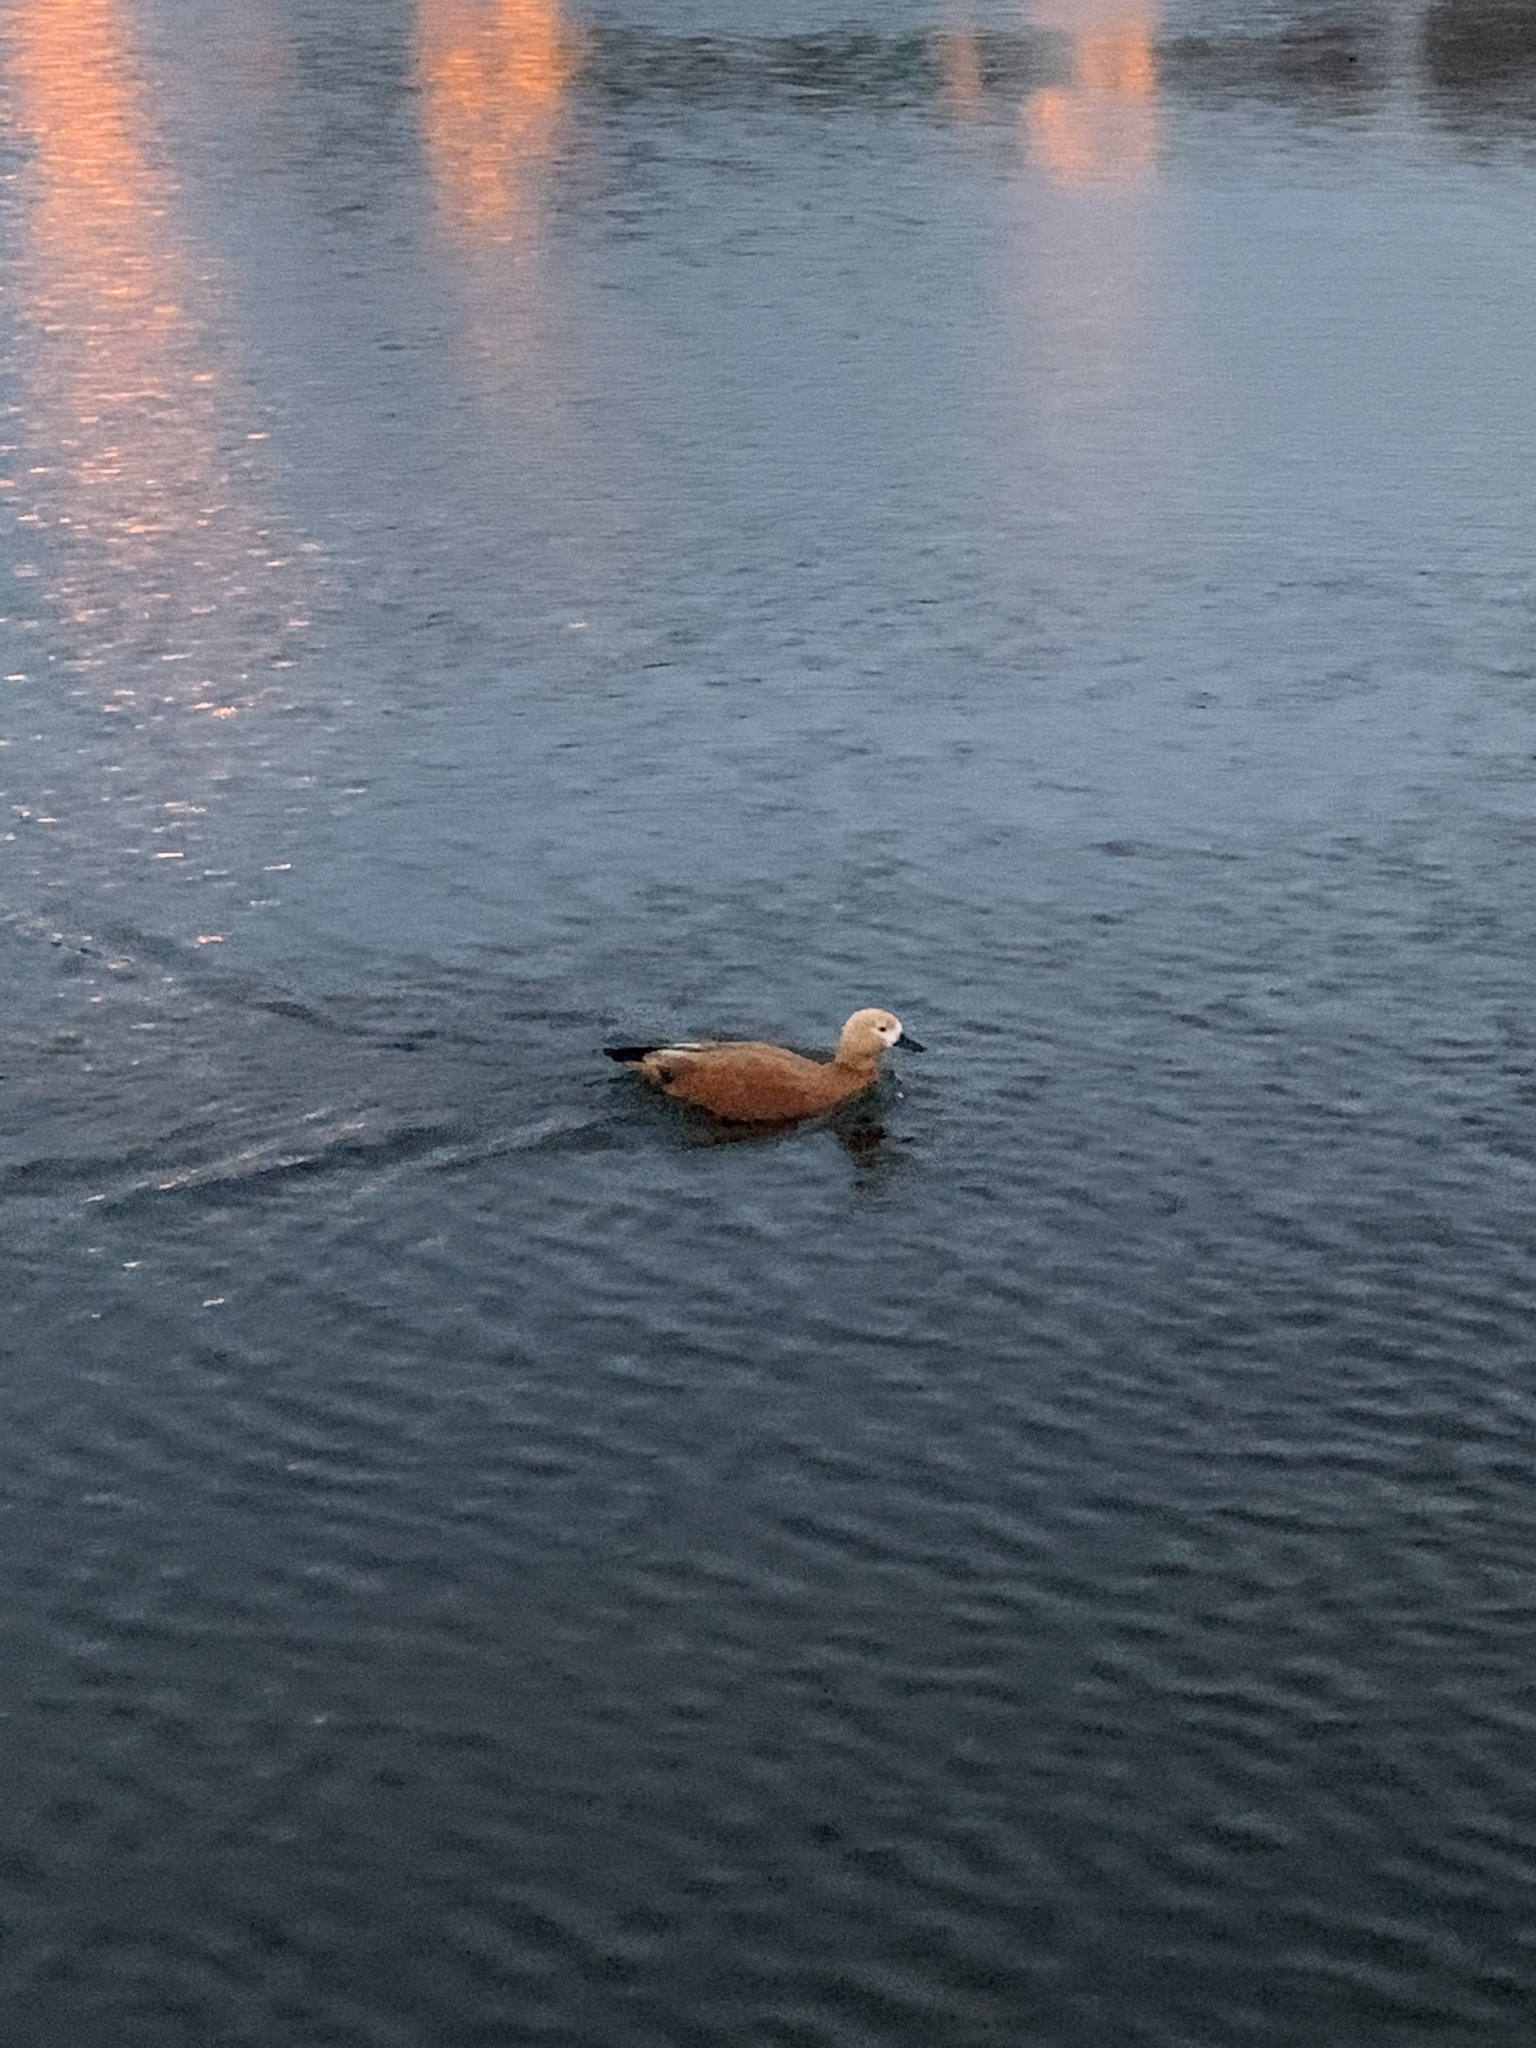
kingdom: Animalia
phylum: Chordata
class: Aves
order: Anseriformes
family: Anatidae
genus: Tadorna
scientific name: Tadorna ferruginea
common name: Ruddy shelduck
